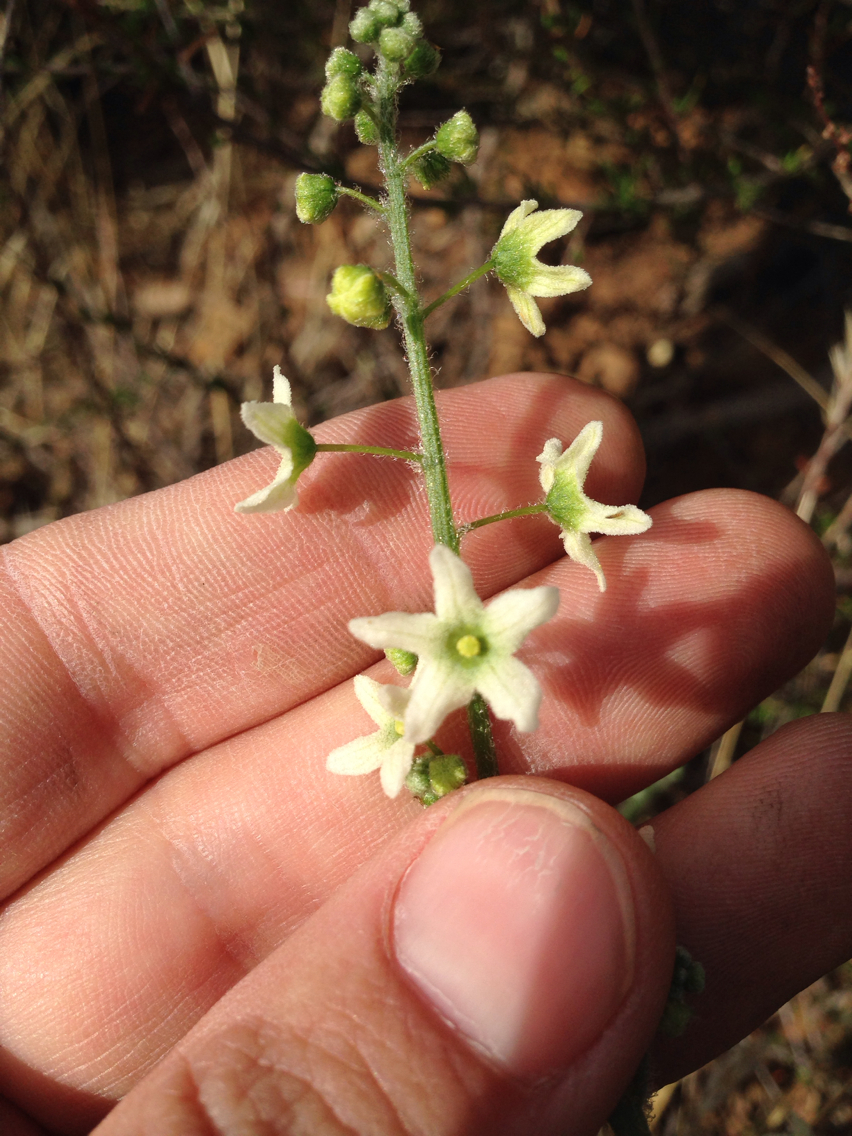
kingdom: Plantae
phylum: Tracheophyta
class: Magnoliopsida
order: Cucurbitales
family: Cucurbitaceae
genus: Marah
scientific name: Marah fabacea
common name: California manroot
